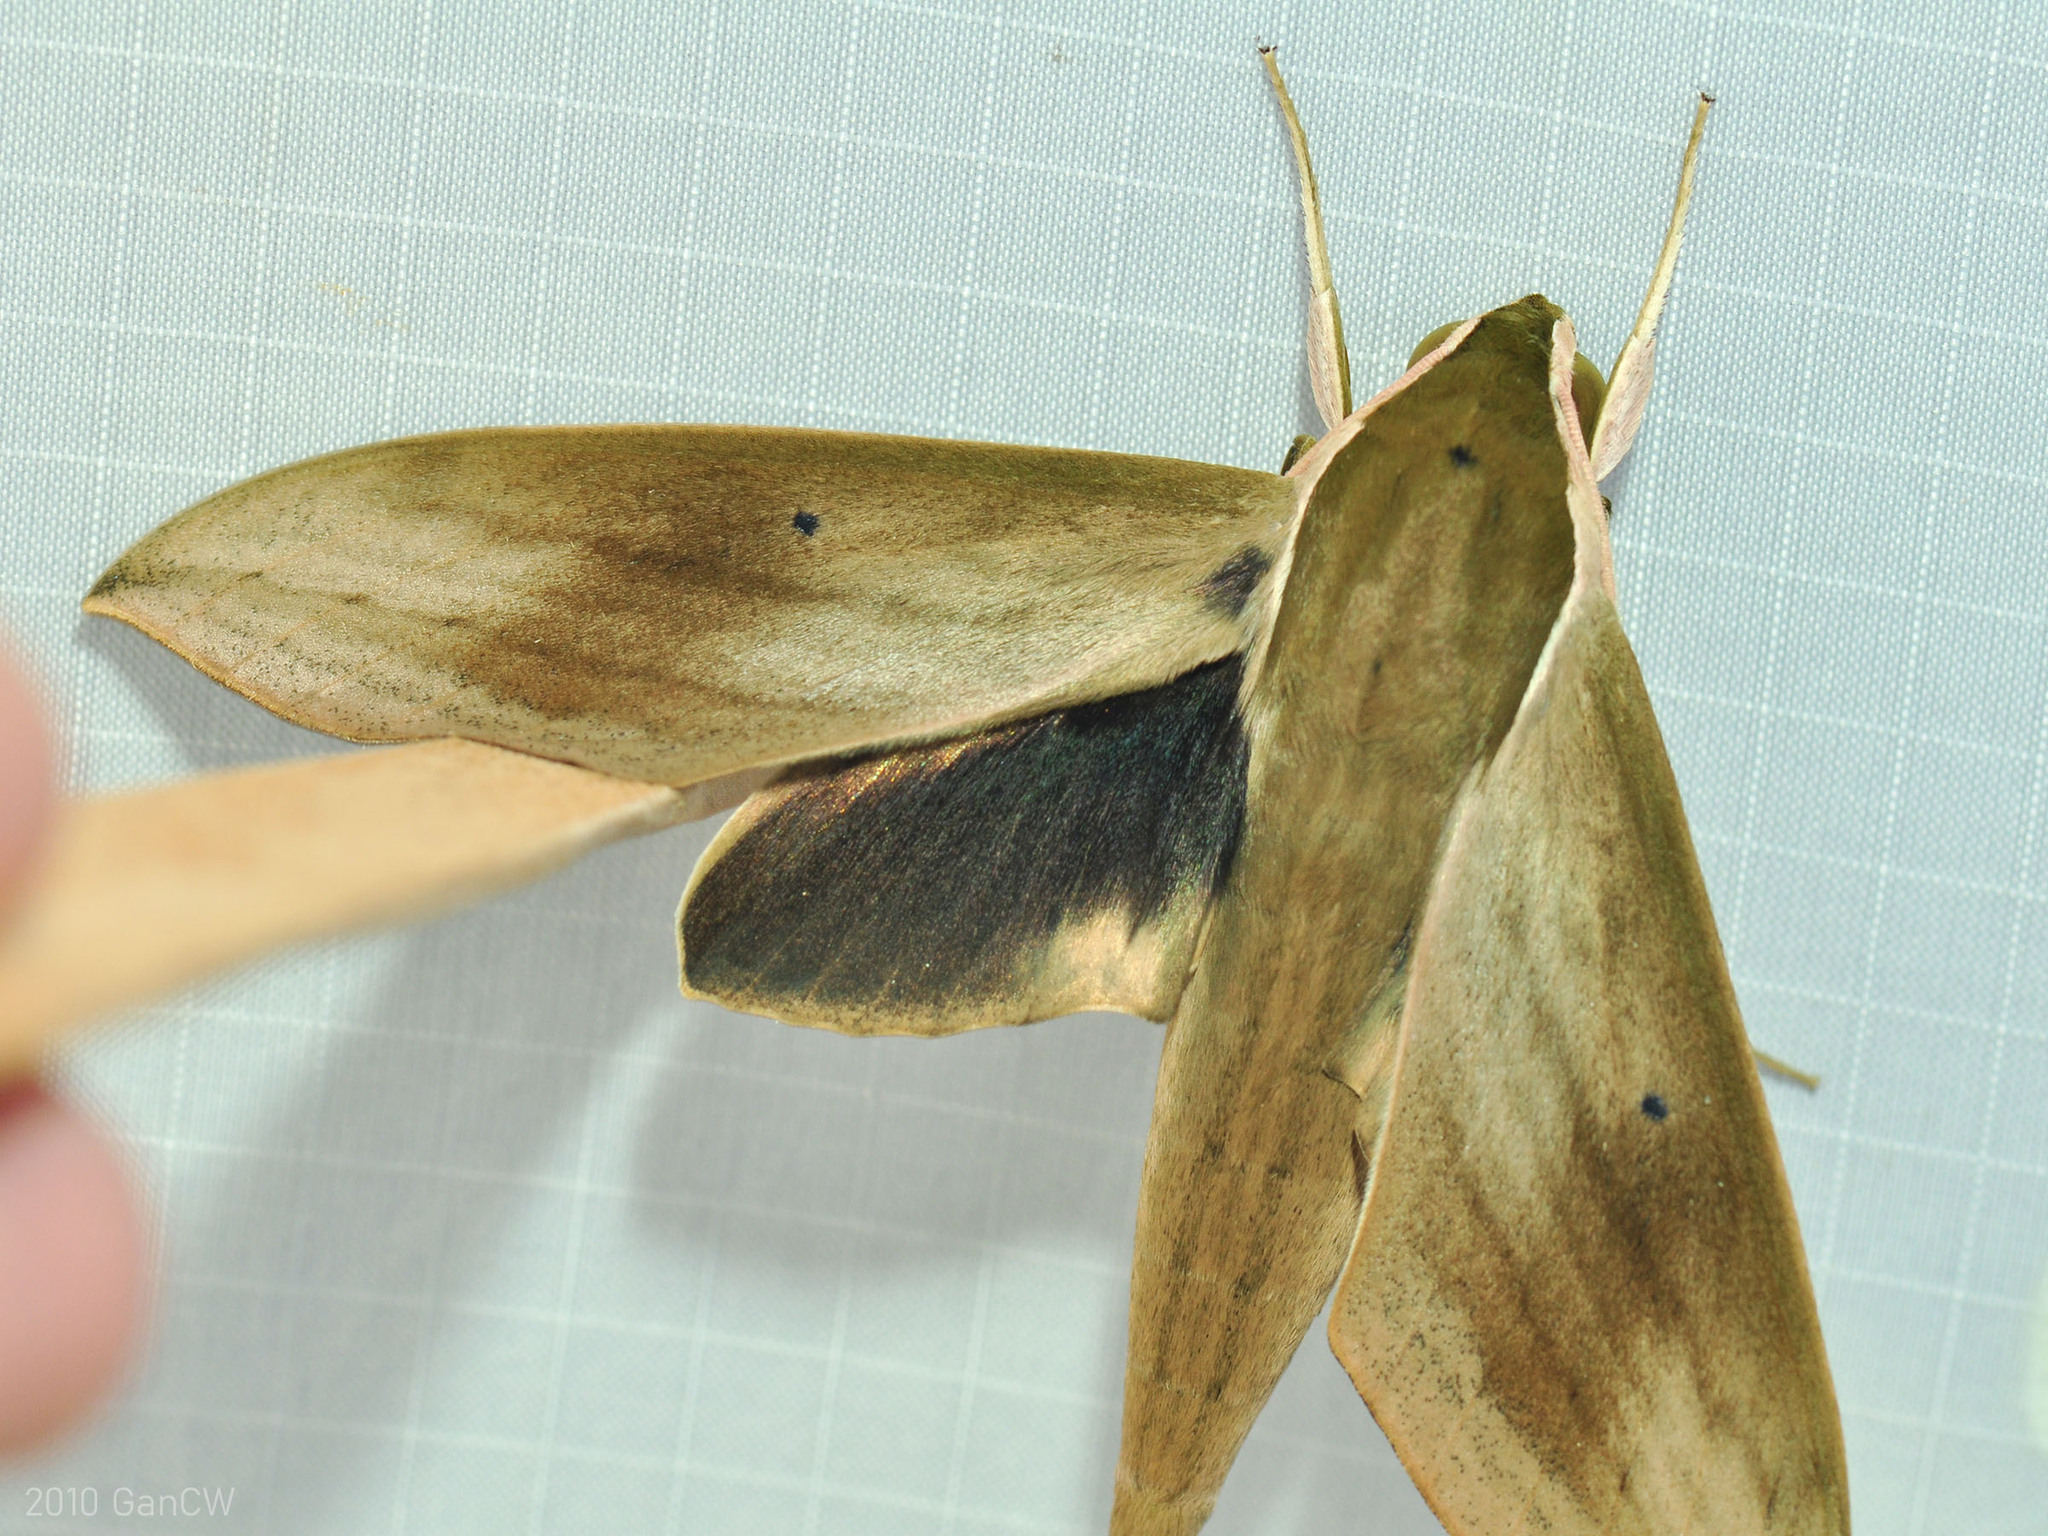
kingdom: Animalia
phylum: Arthropoda
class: Insecta
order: Lepidoptera
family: Sphingidae
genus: Theretra
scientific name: Theretra sumatrensis
